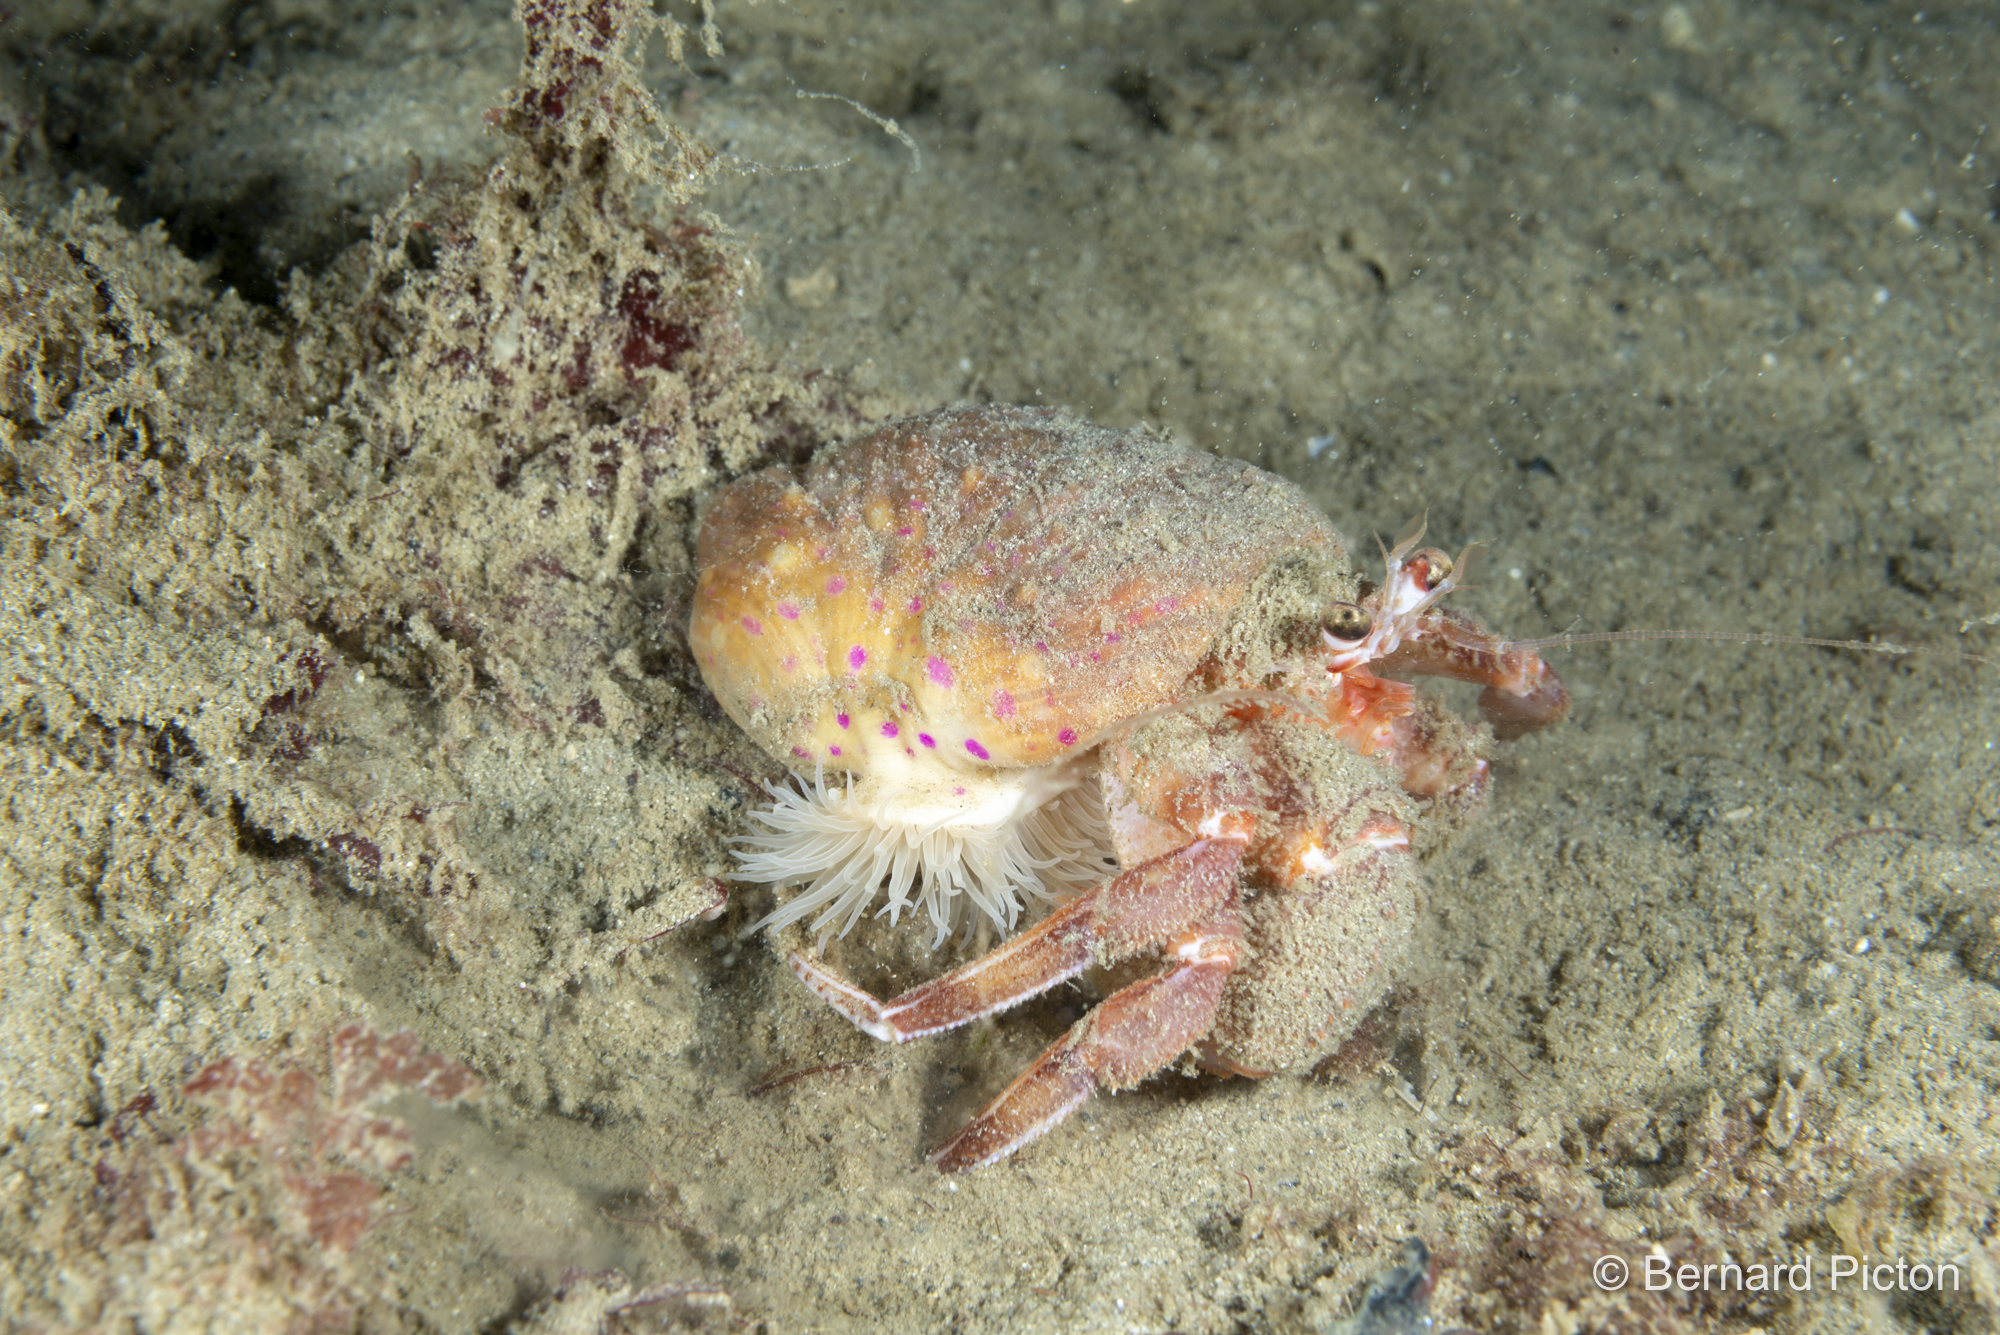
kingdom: Animalia
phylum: Arthropoda
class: Malacostraca
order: Decapoda
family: Paguridae
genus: Pagurus
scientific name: Pagurus prideaux
